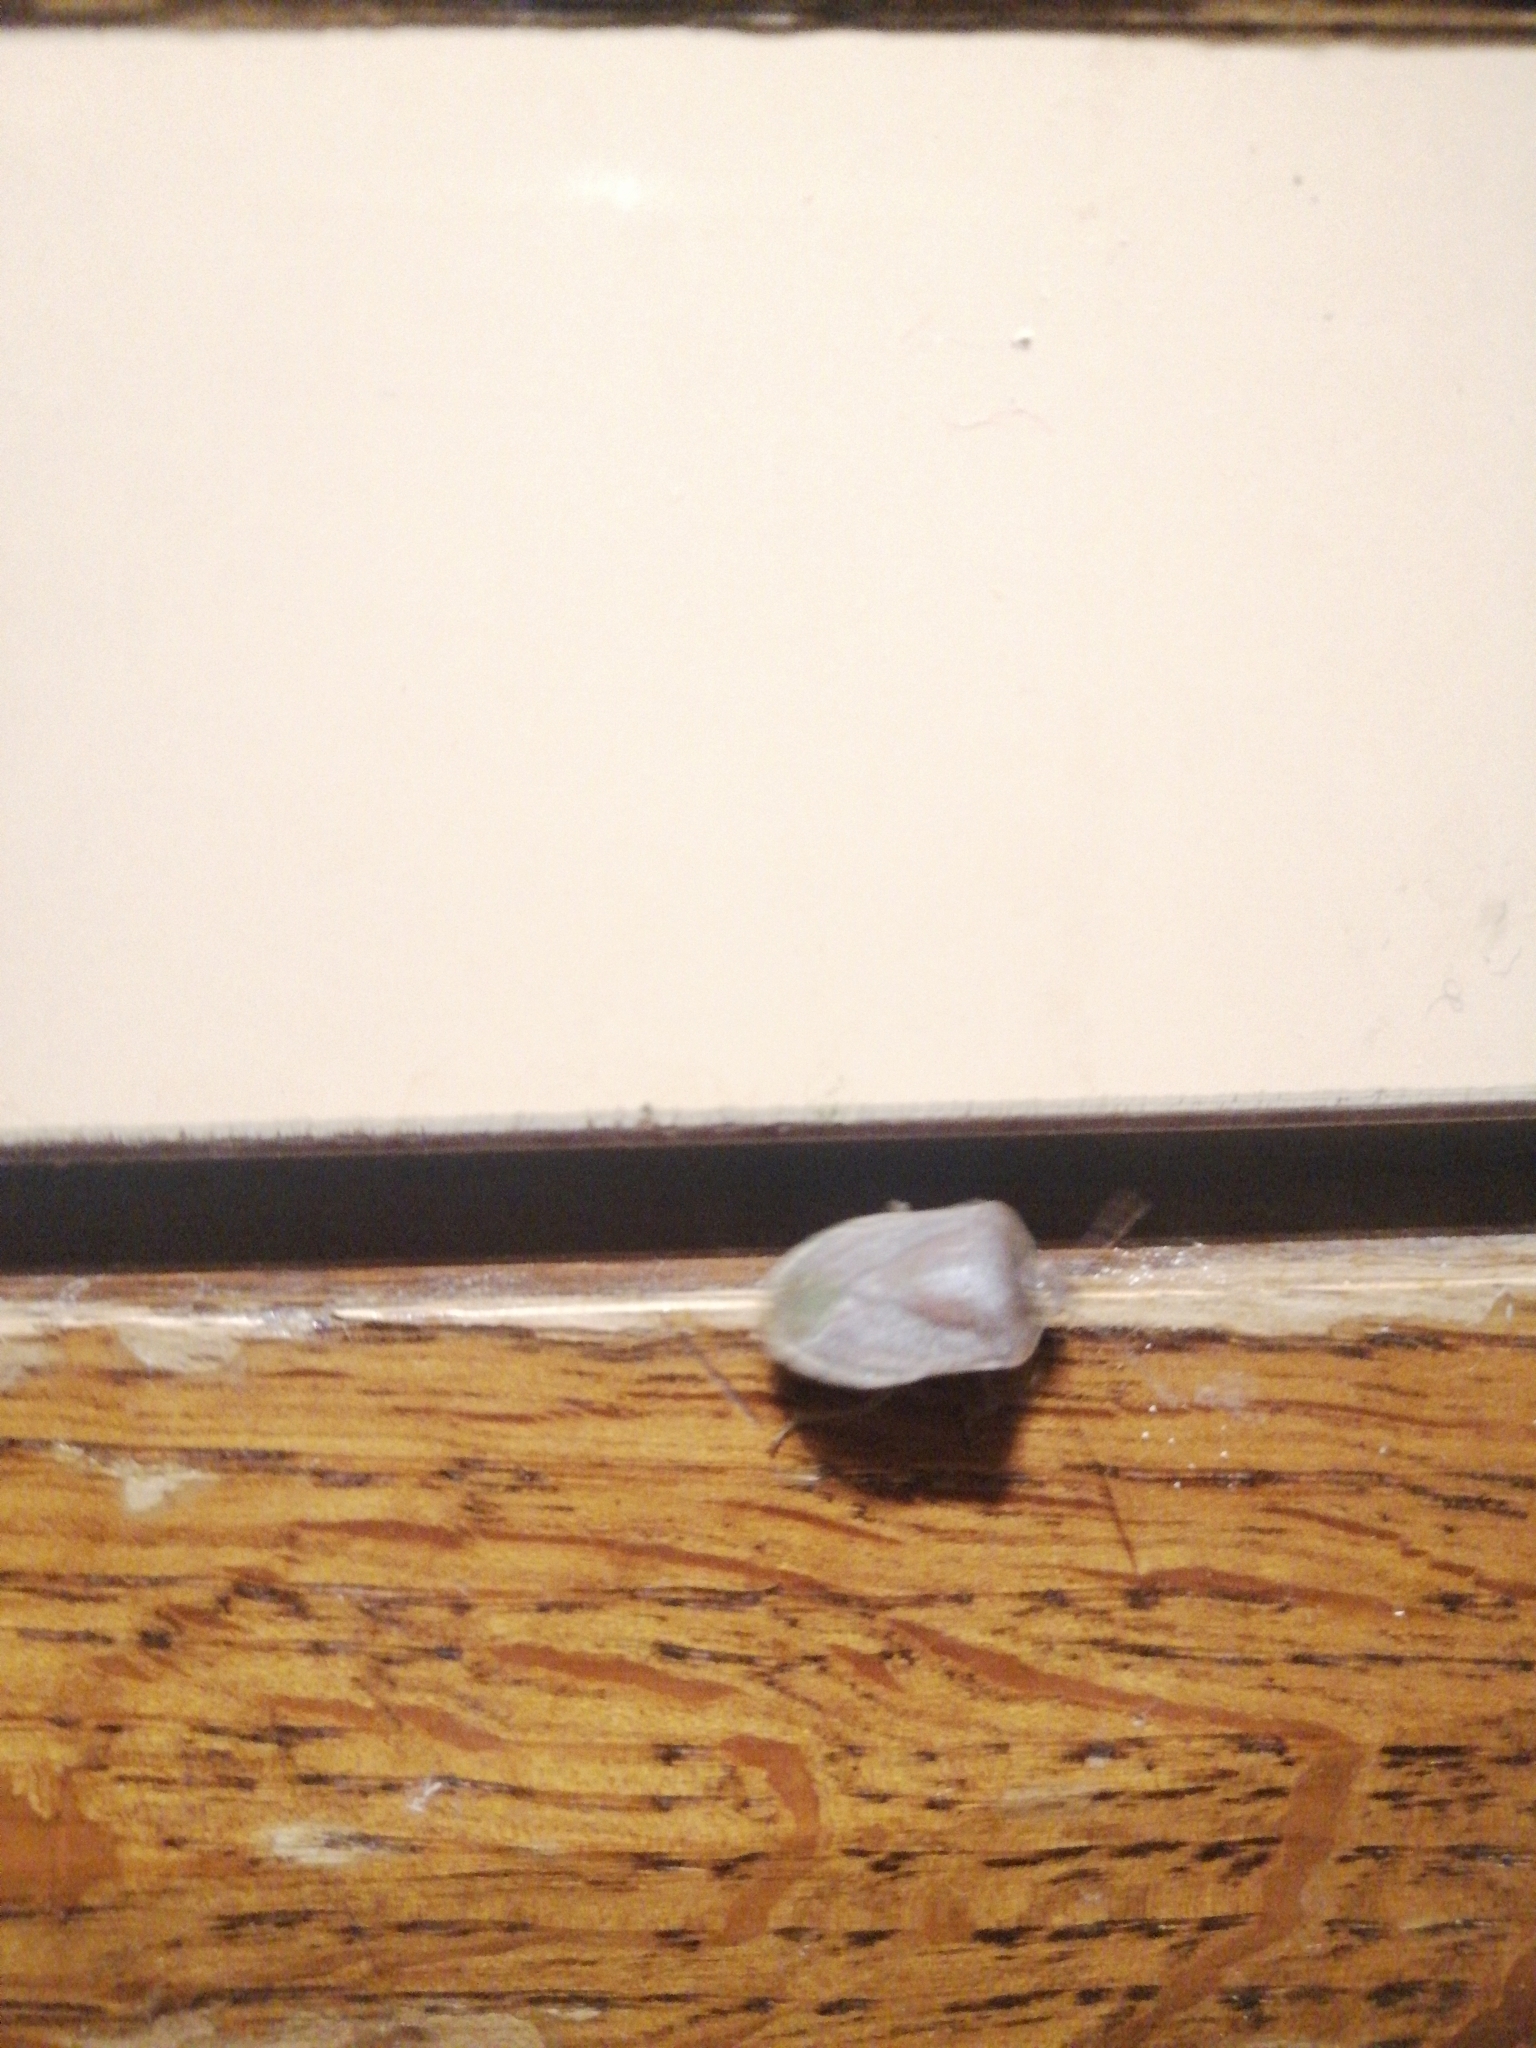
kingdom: Animalia
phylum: Arthropoda
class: Insecta
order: Hemiptera
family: Pentatomidae
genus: Nezara
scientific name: Nezara viridula
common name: Southern green stink bug
